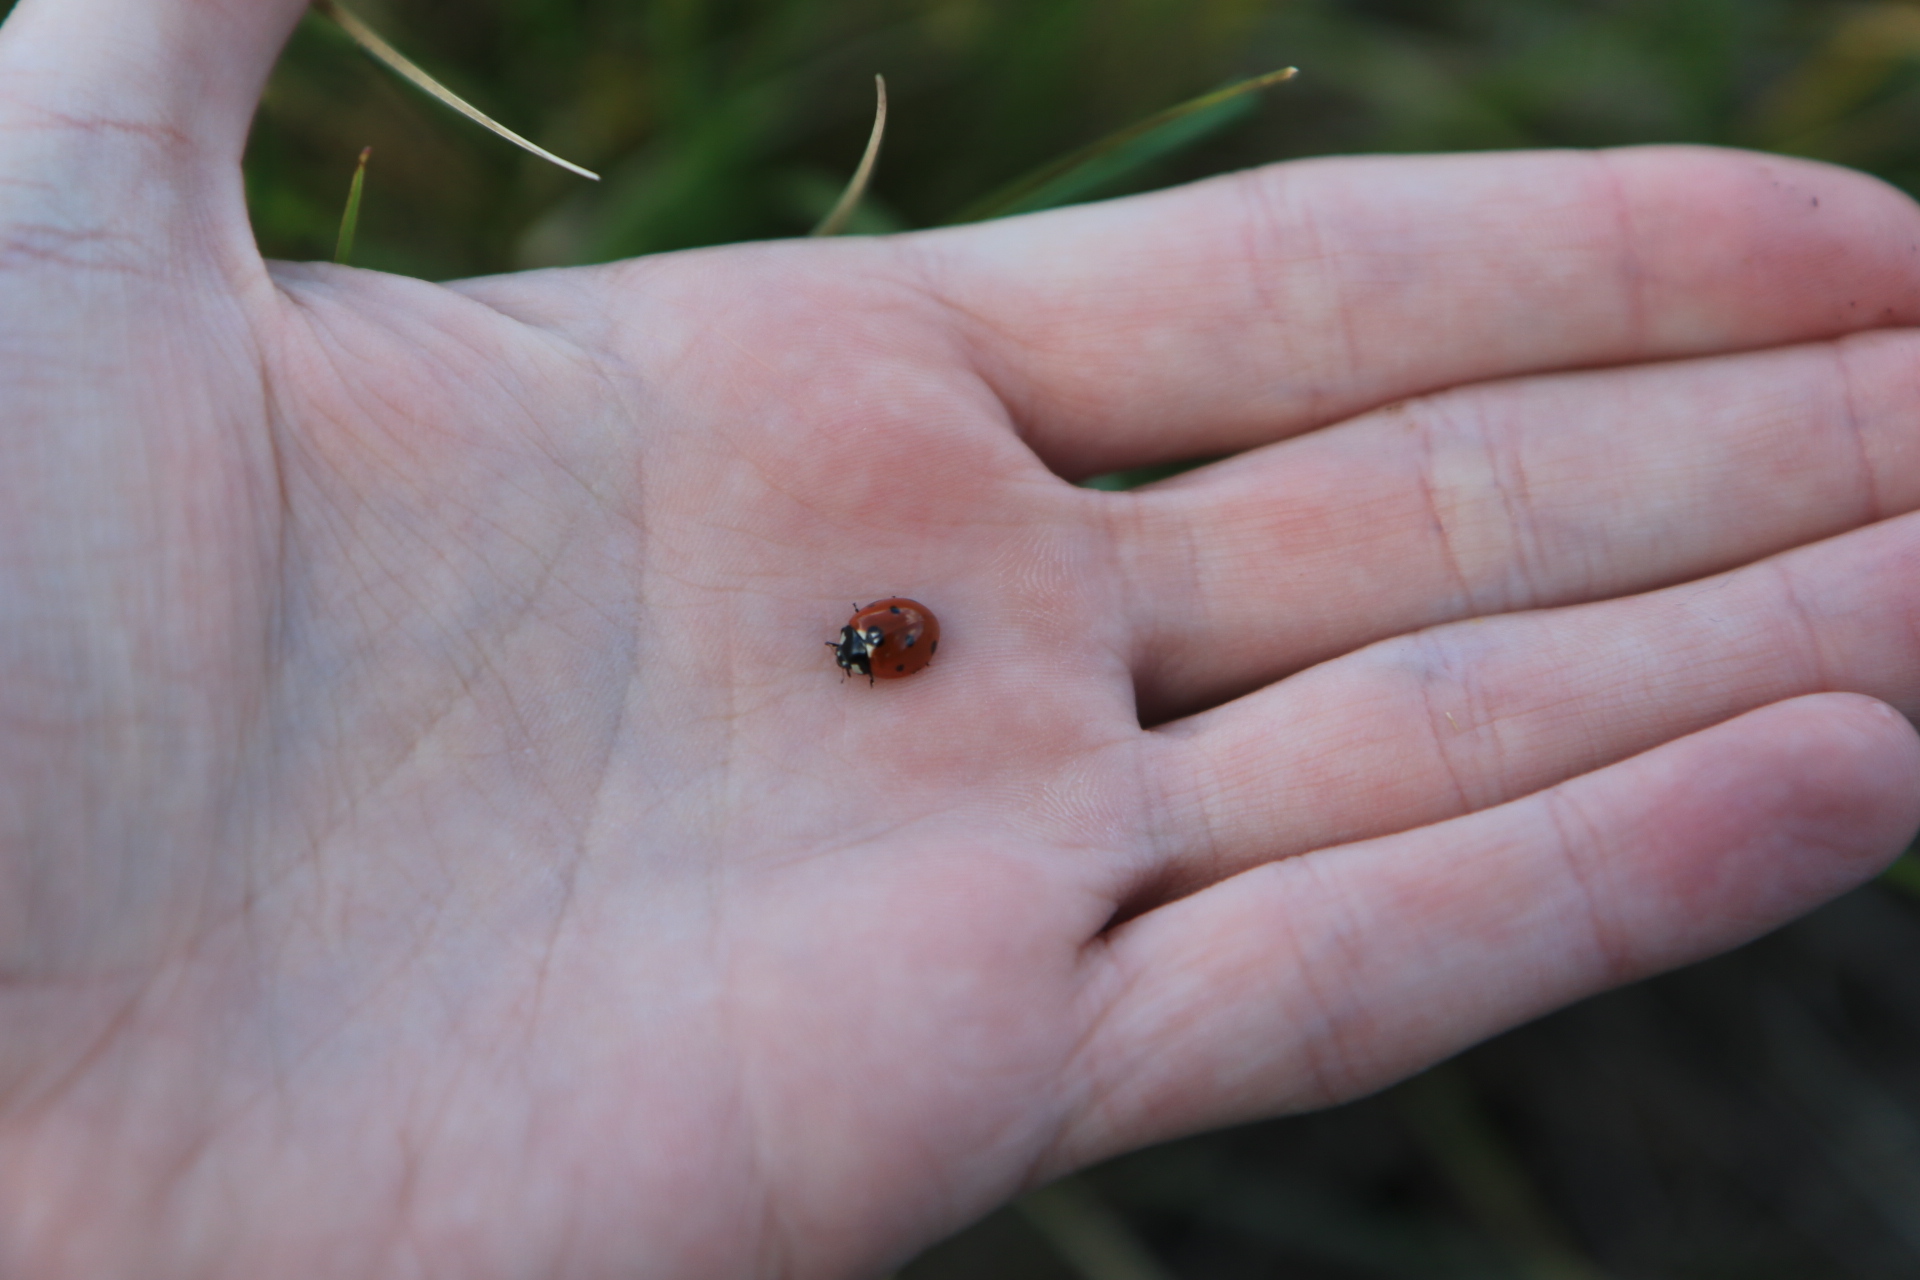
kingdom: Animalia
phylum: Arthropoda
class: Insecta
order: Coleoptera
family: Coccinellidae
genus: Coccinella
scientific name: Coccinella septempunctata
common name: Sevenspotted lady beetle
